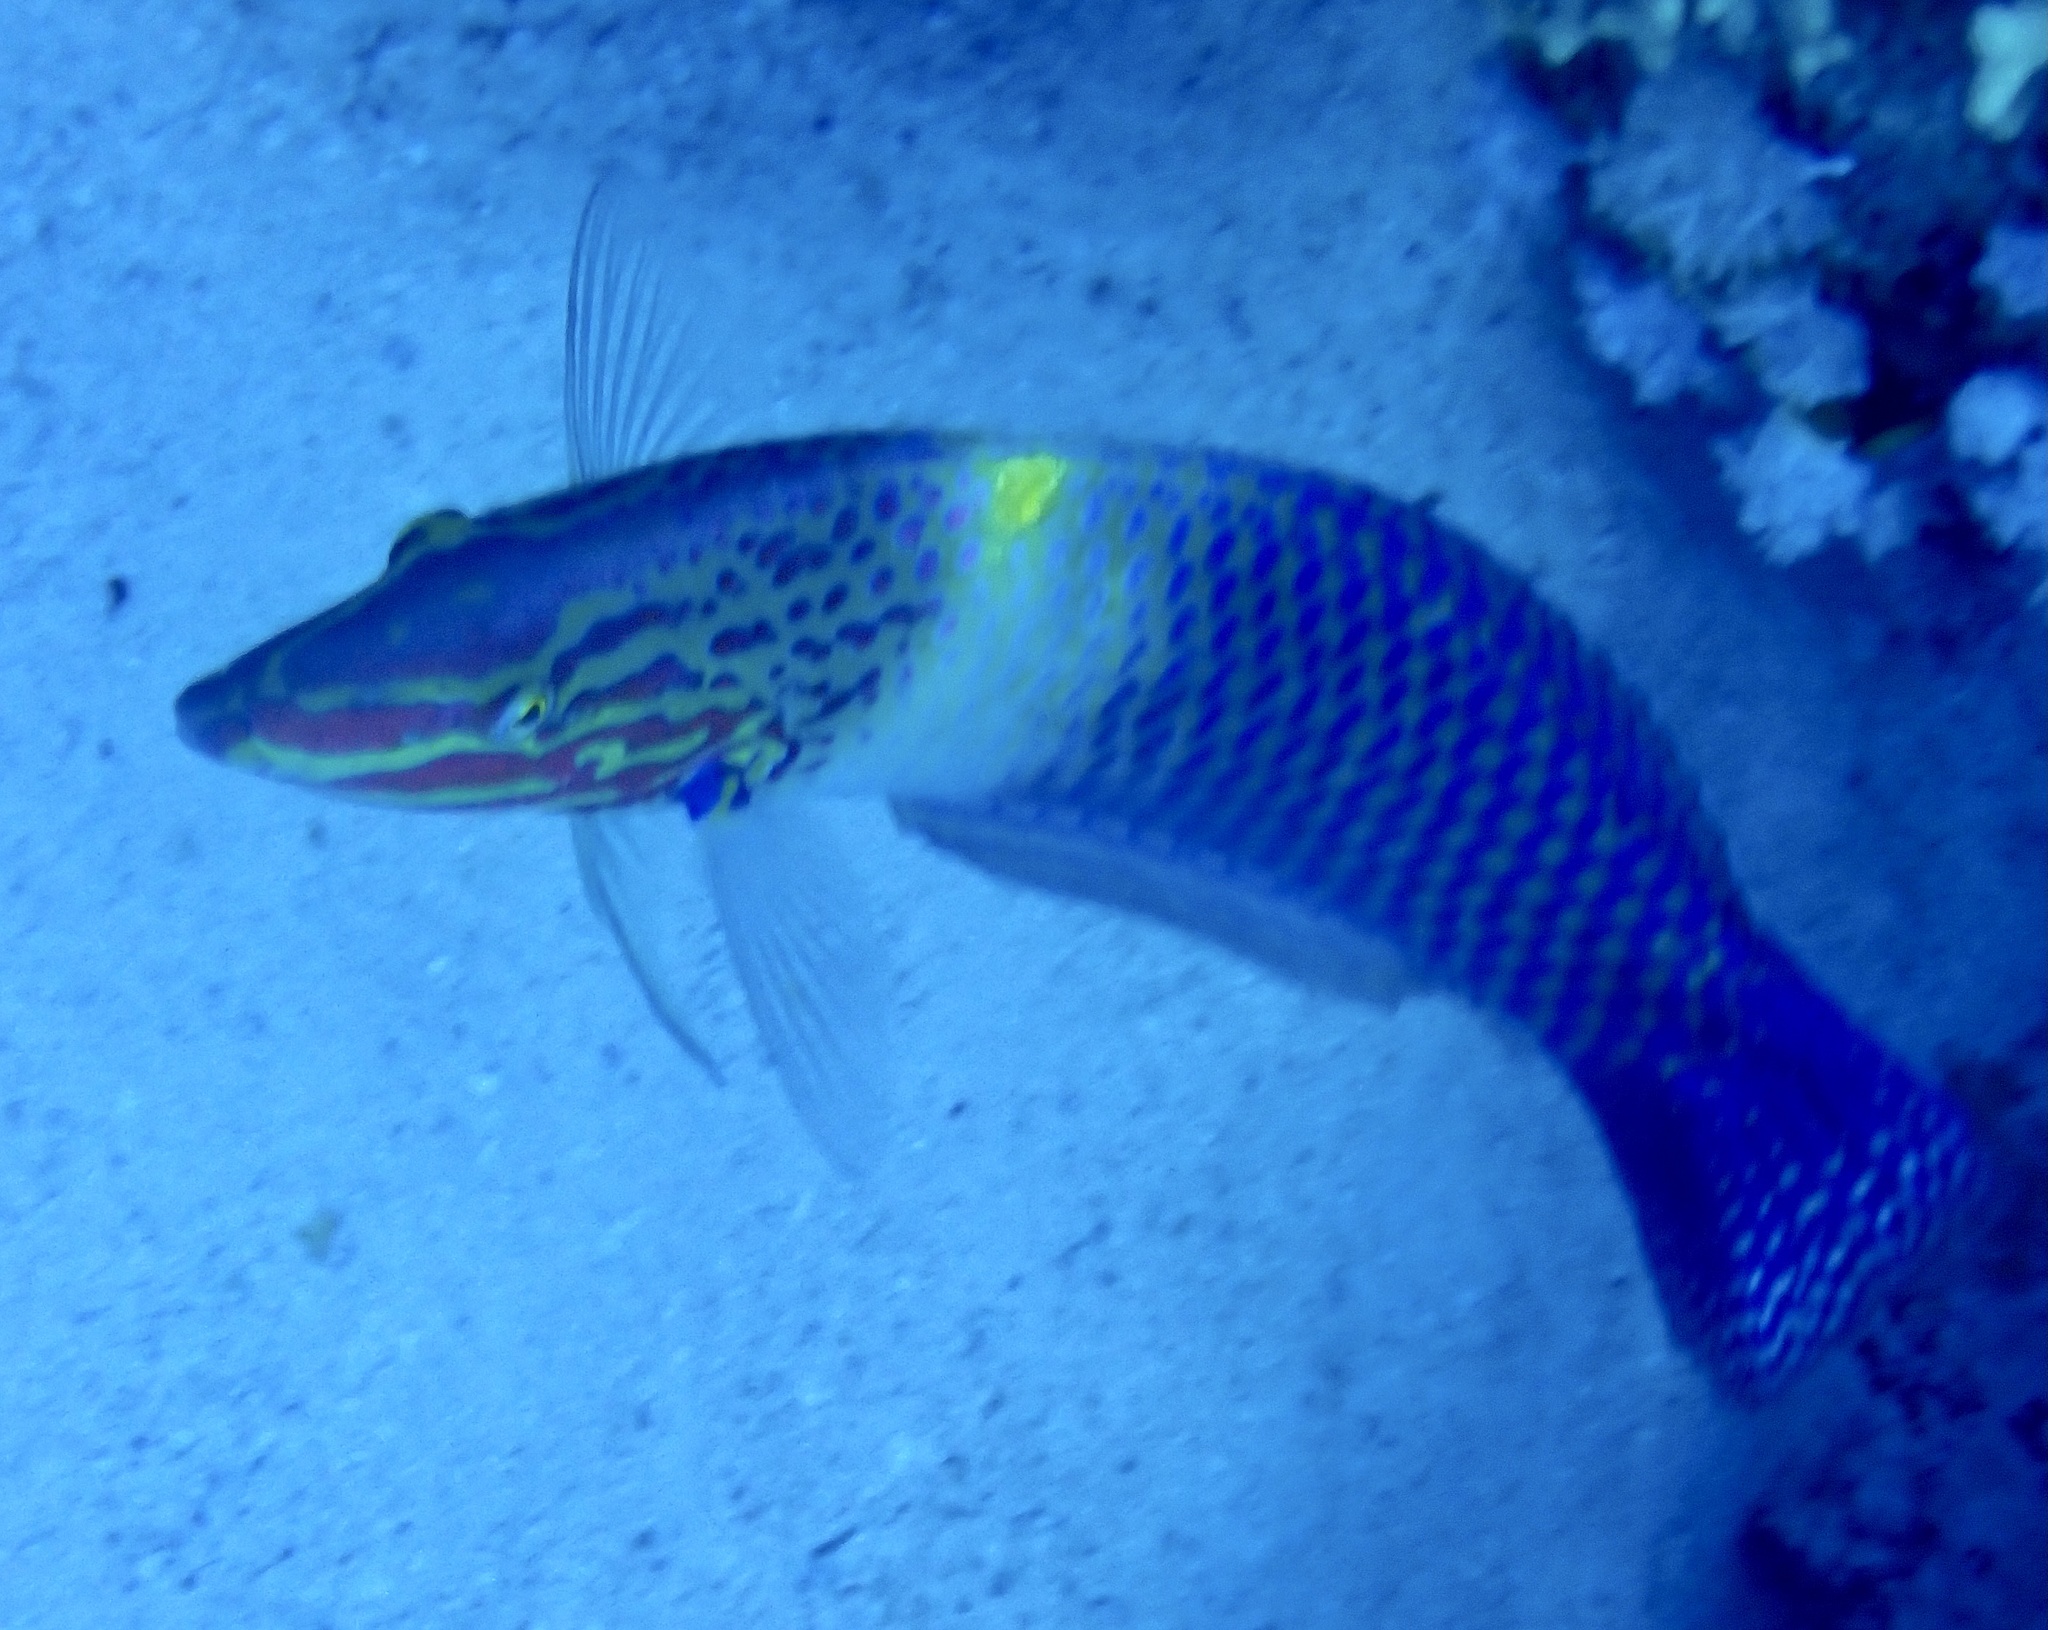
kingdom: Animalia
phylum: Chordata
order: Perciformes
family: Labridae
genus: Halichoeres
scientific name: Halichoeres hortulanus
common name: Checkerboard wrasse
